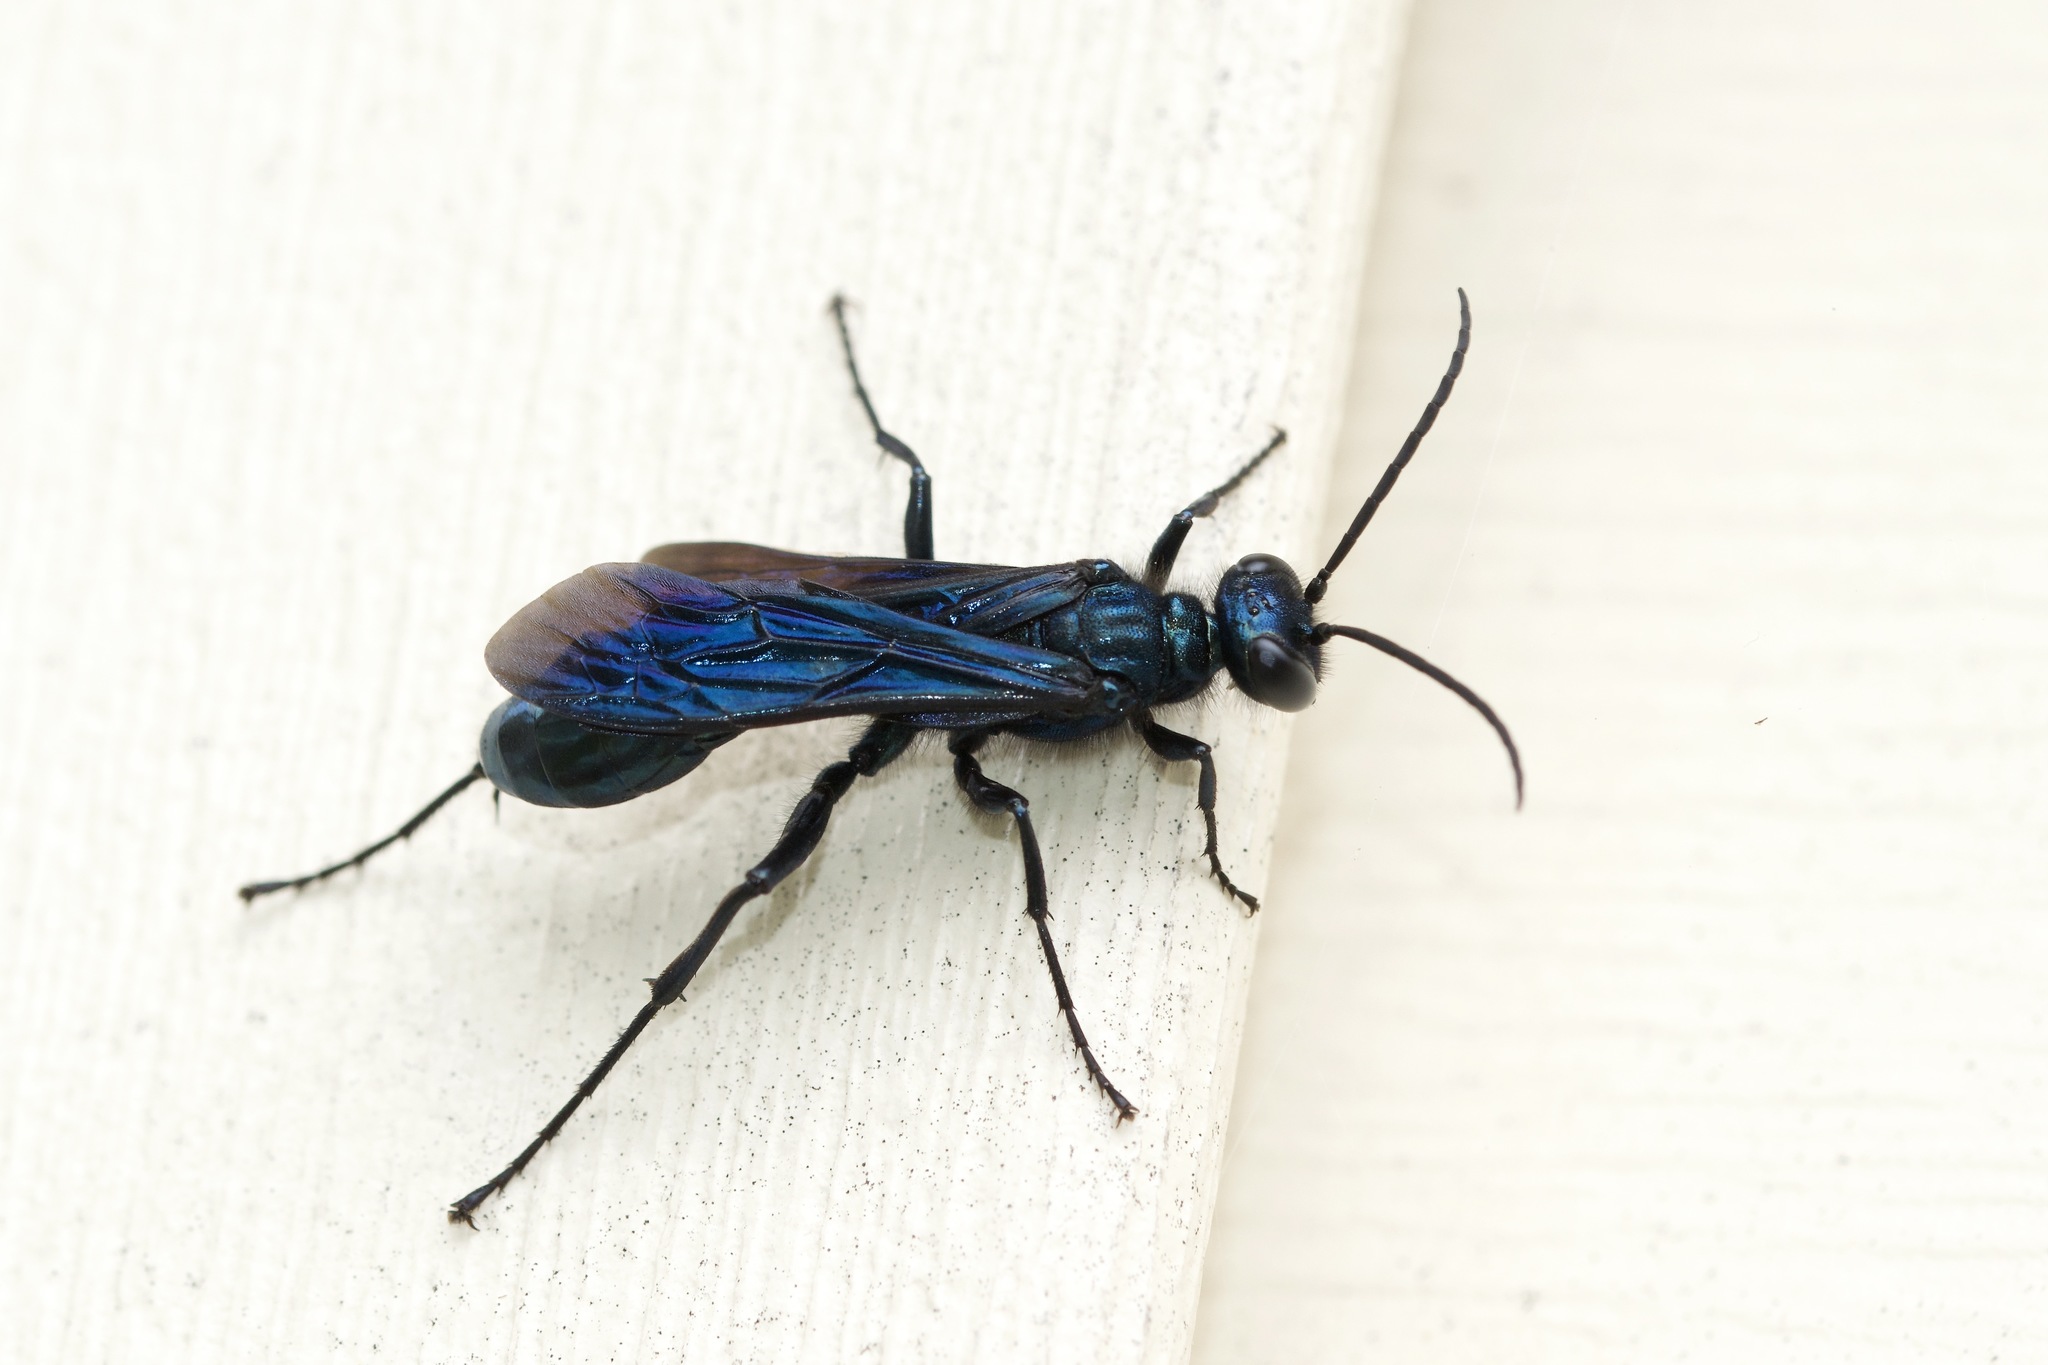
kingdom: Animalia
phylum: Arthropoda
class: Insecta
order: Hymenoptera
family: Sphecidae
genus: Chalybion
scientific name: Chalybion californicum
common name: Mud dauber
